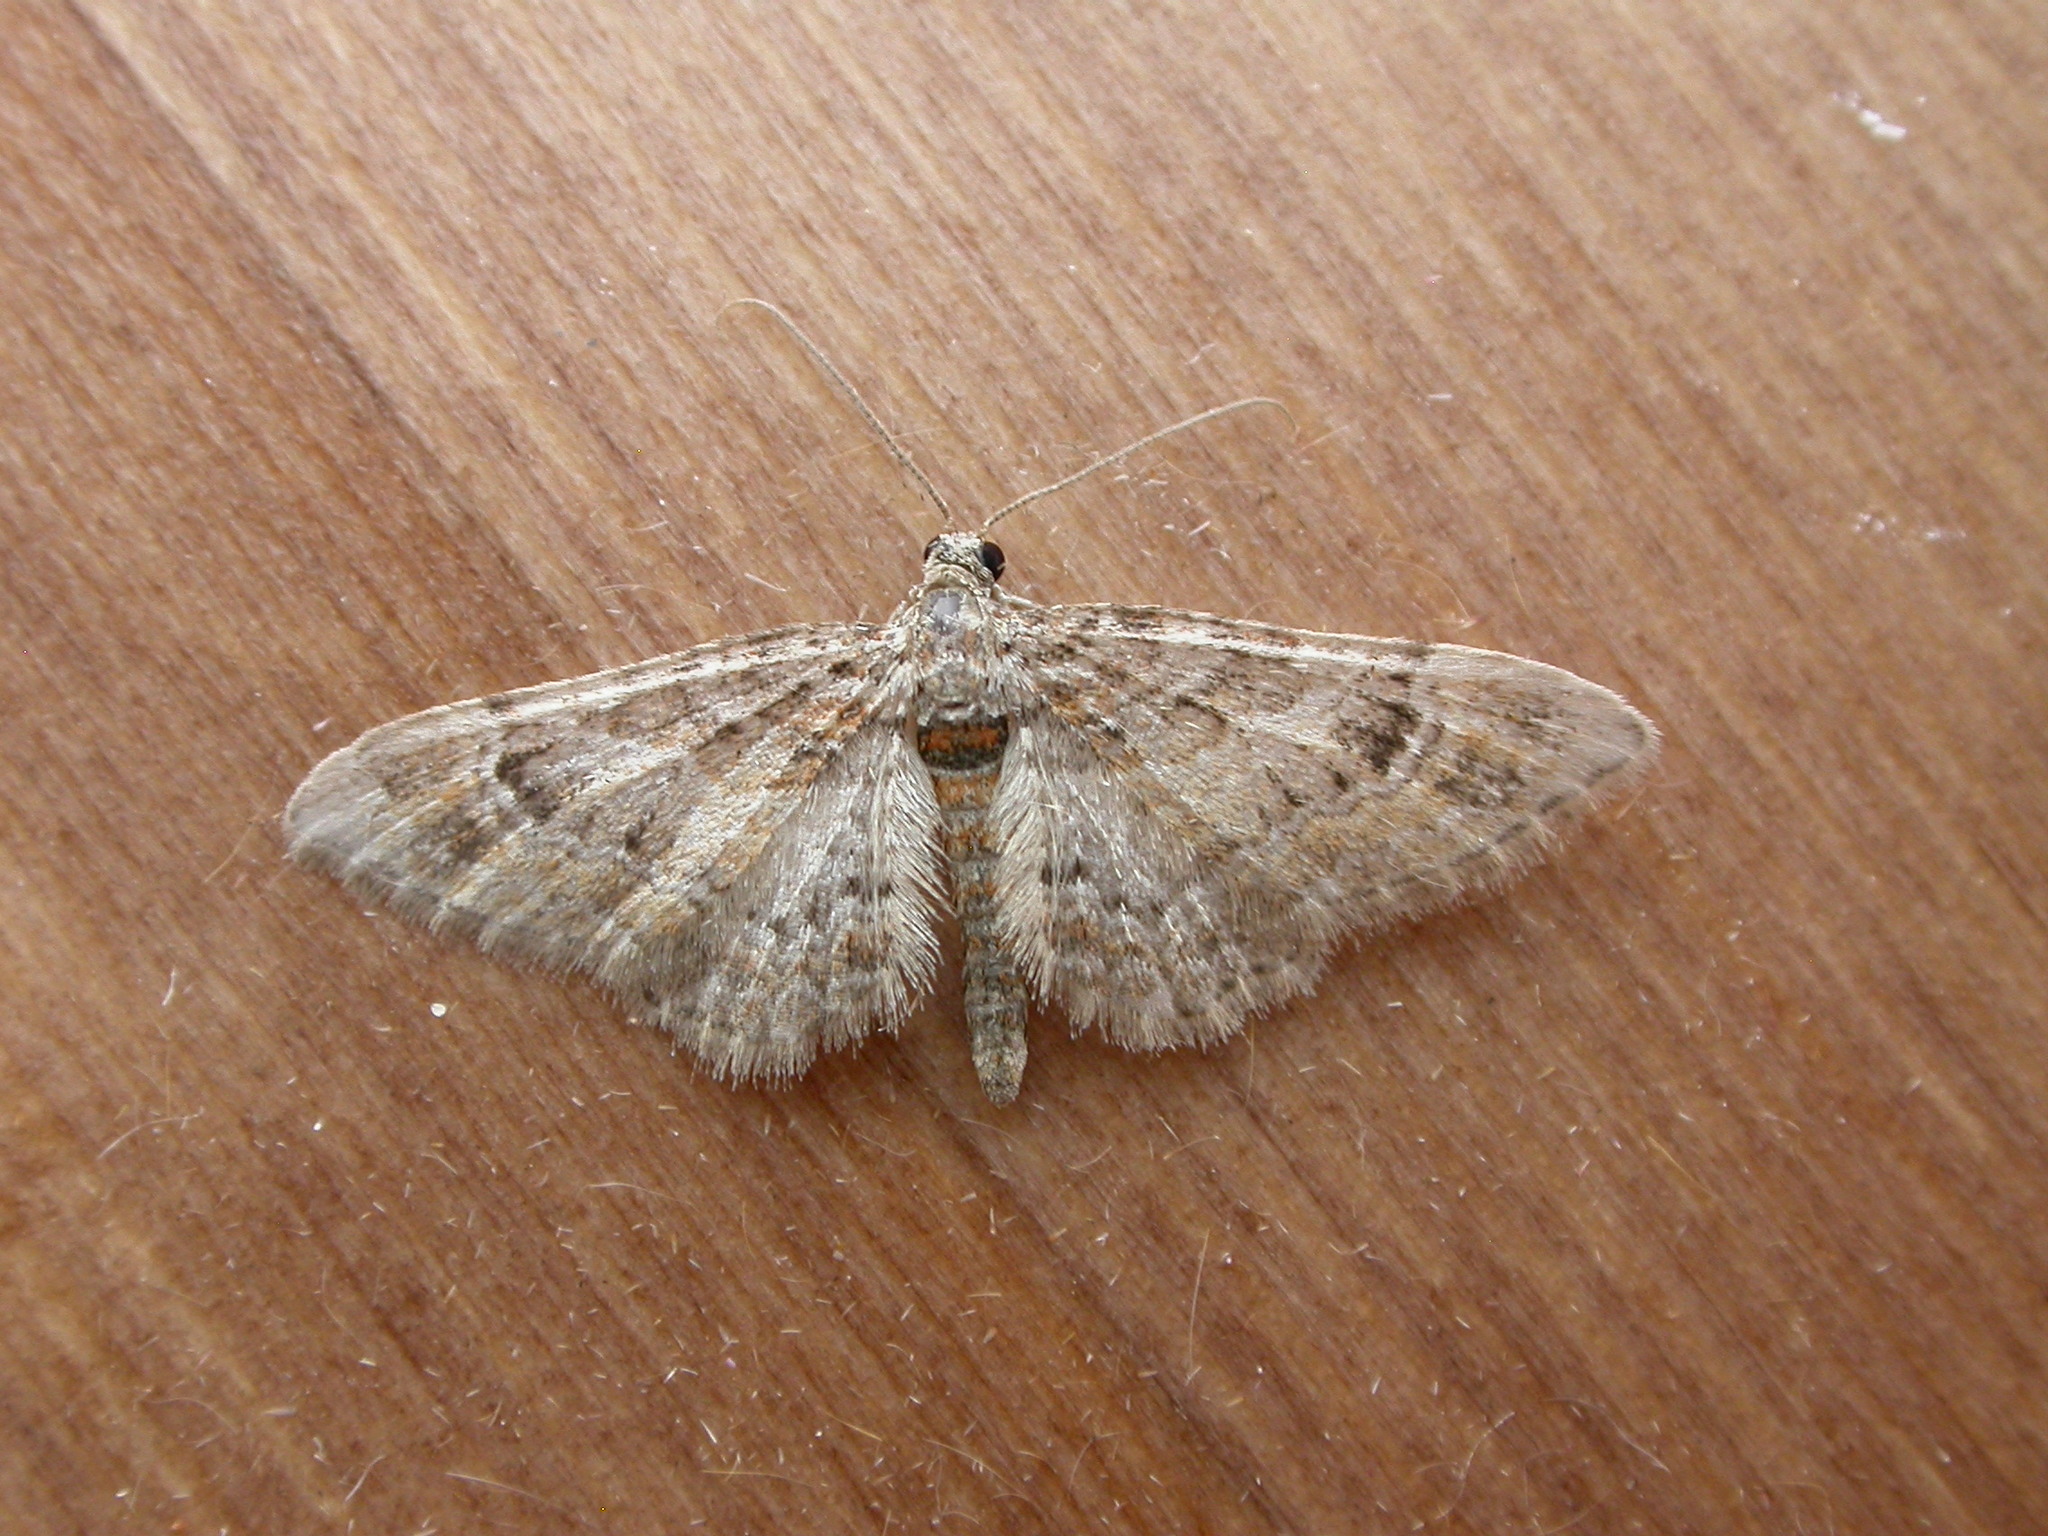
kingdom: Animalia
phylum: Arthropoda
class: Insecta
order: Lepidoptera
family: Geometridae
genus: Gymnoscelis
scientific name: Gymnoscelis rufifasciata
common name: Double-striped pug
